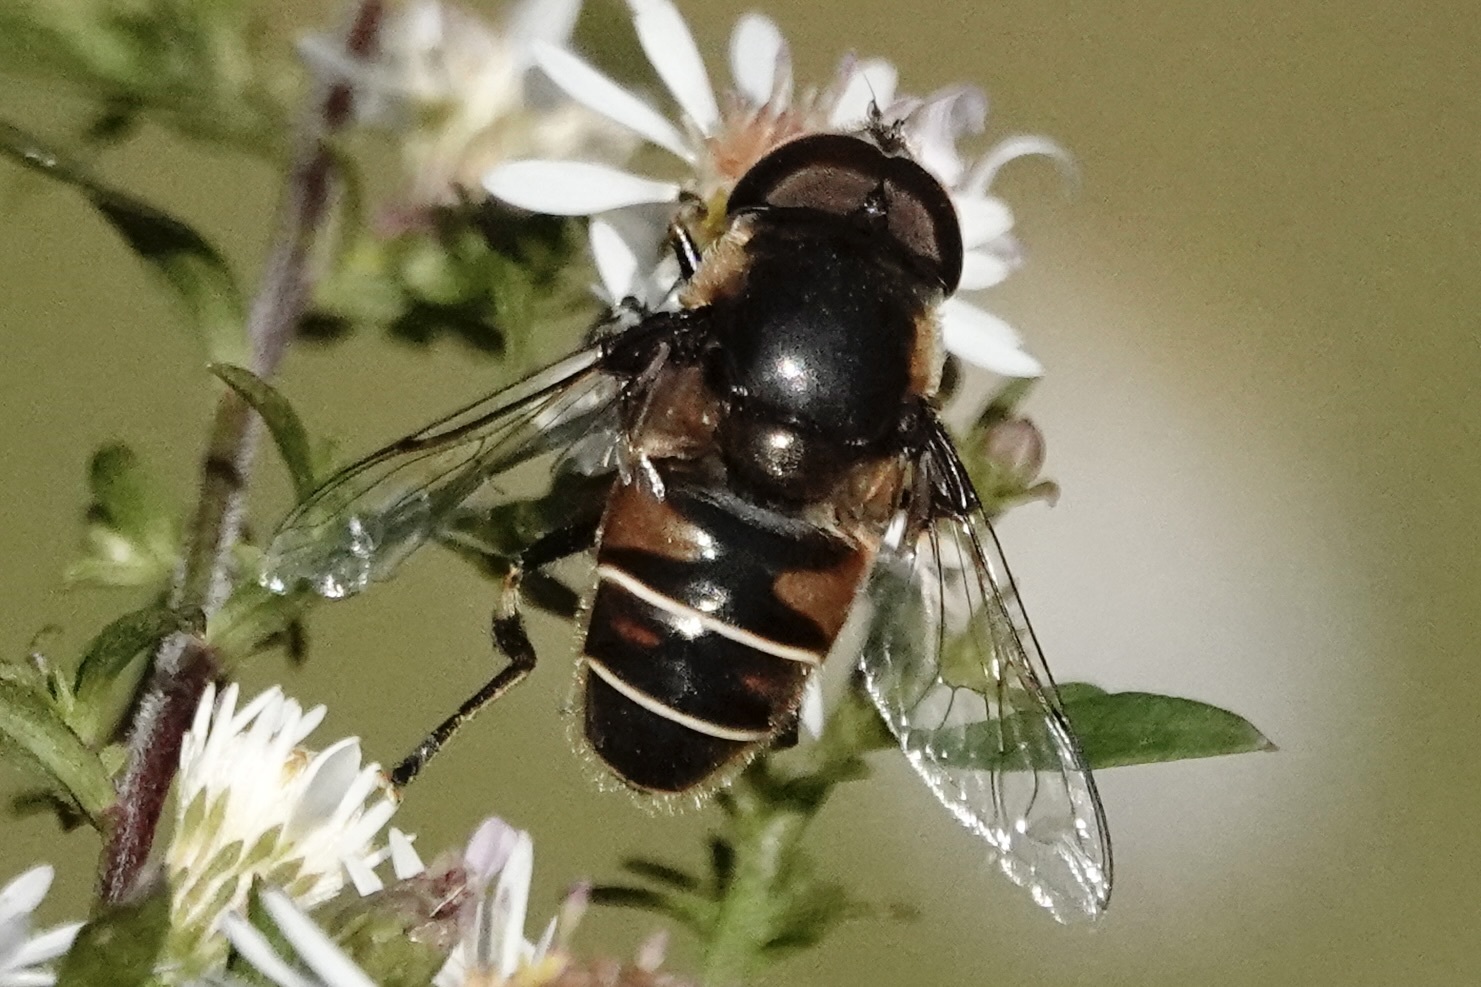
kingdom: Animalia
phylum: Arthropoda
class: Insecta
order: Diptera
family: Syrphidae
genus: Eristalis
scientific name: Eristalis dimidiata
